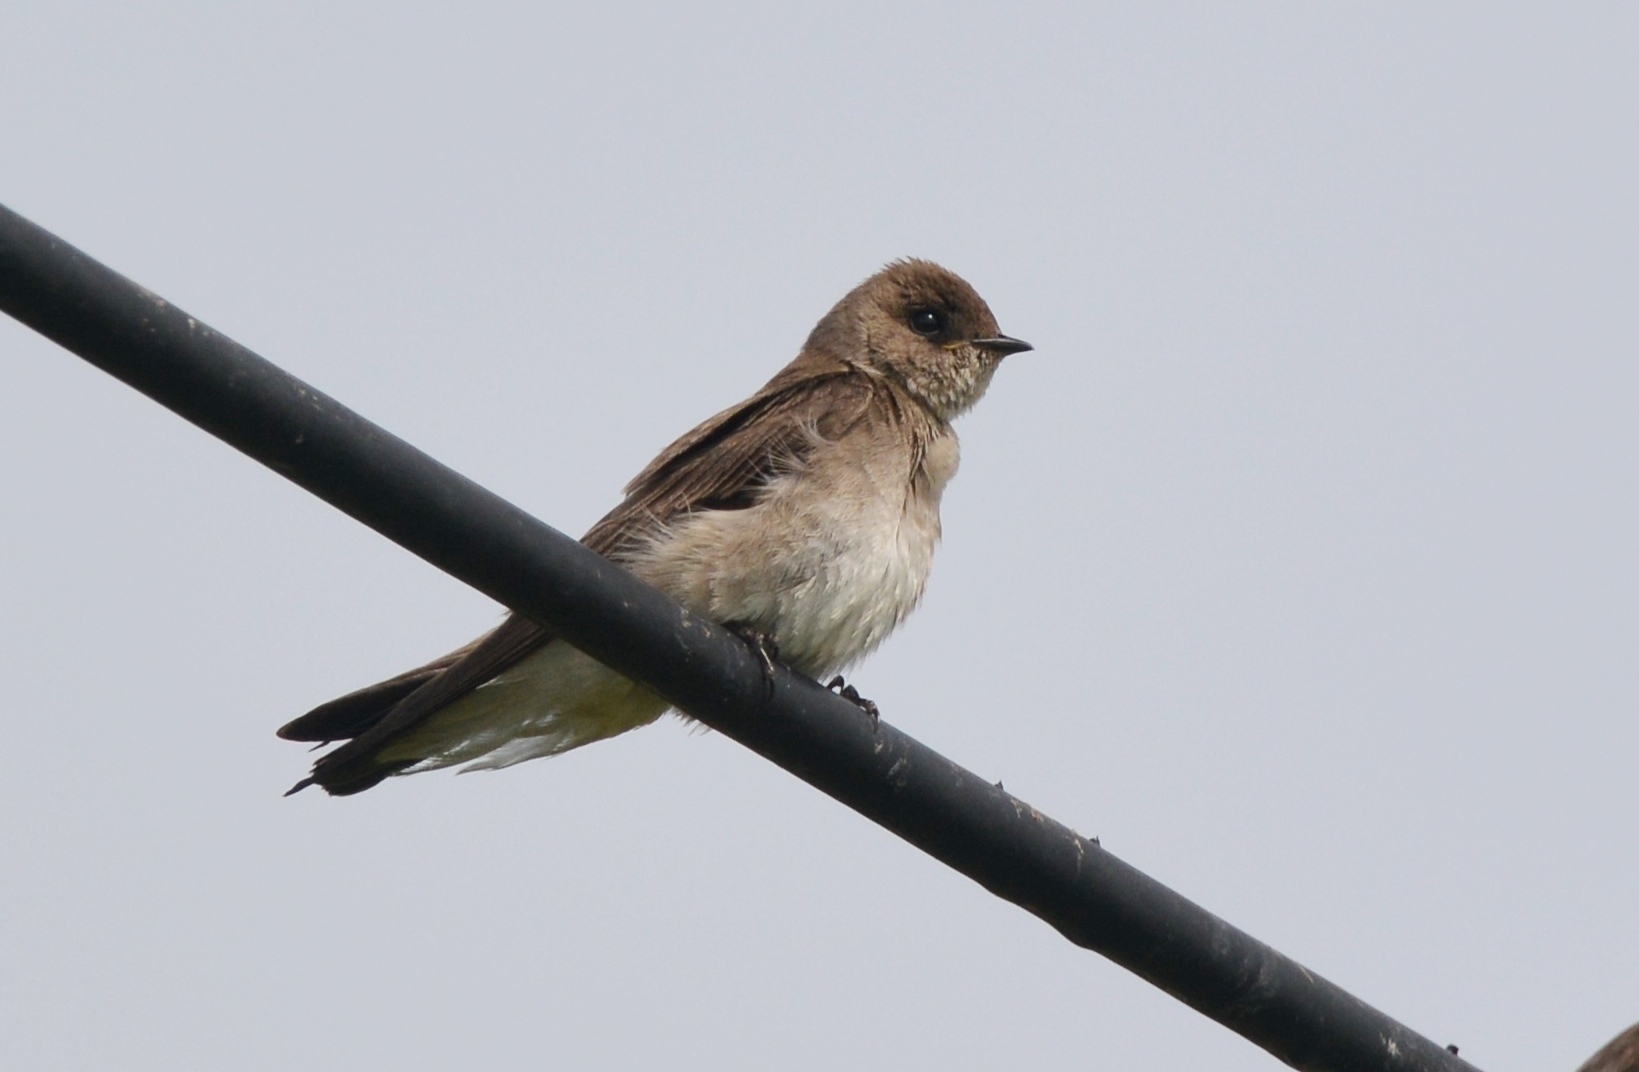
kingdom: Animalia
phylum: Chordata
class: Aves
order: Passeriformes
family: Hirundinidae
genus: Stelgidopteryx
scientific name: Stelgidopteryx serripennis
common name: Northern rough-winged swallow
